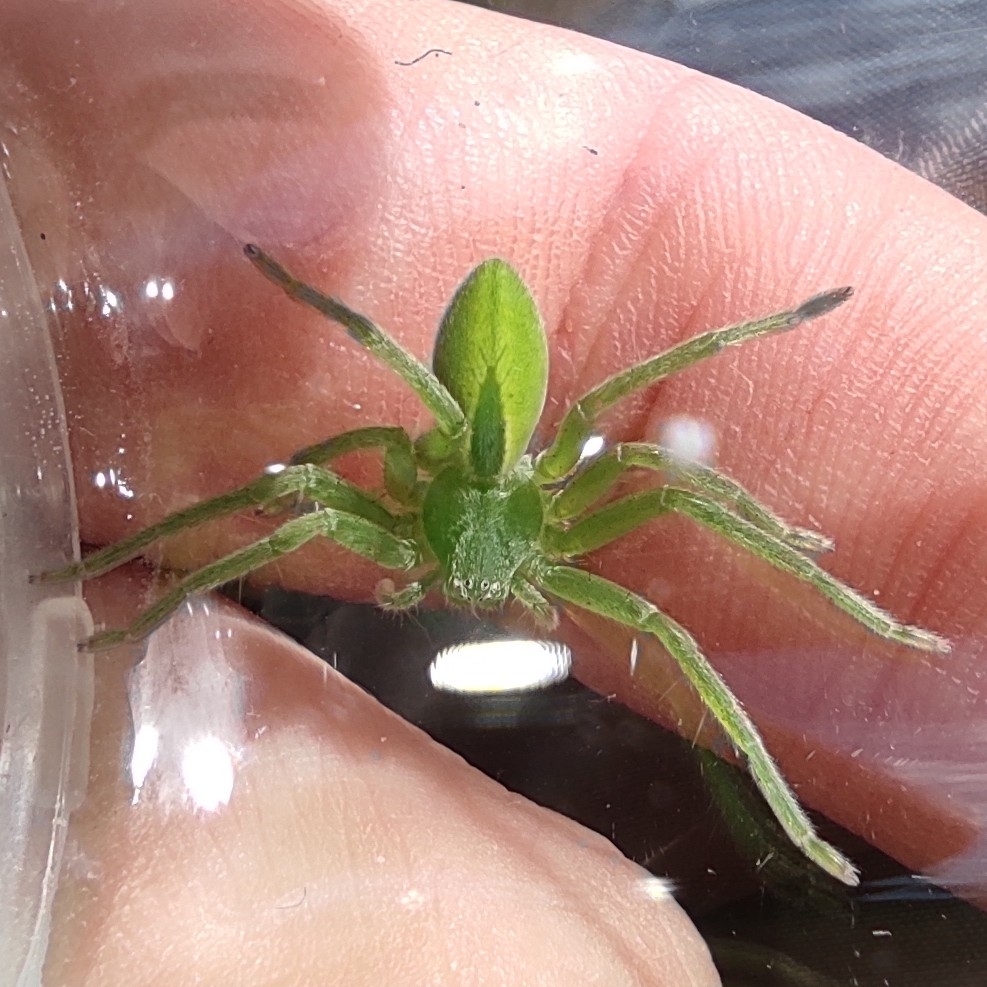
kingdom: Animalia
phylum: Arthropoda
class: Arachnida
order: Araneae
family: Sparassidae
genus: Micrommata
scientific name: Micrommata virescens
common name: Green spider
